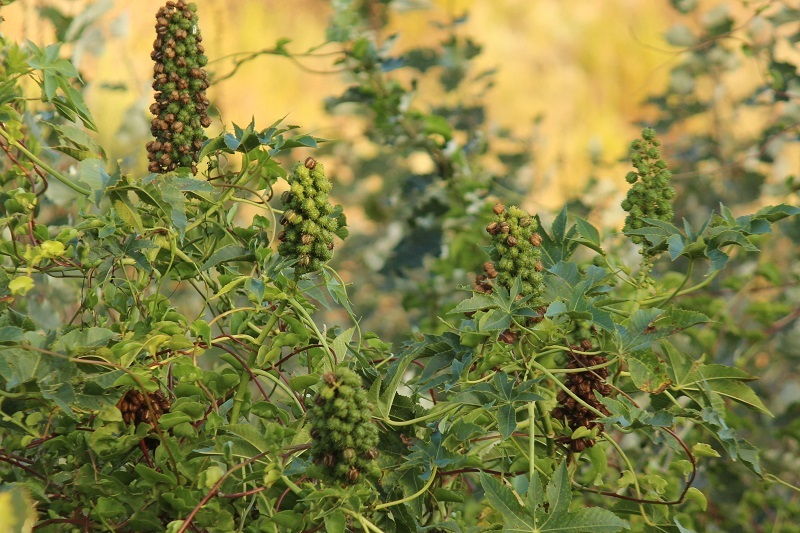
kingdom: Plantae
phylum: Tracheophyta
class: Magnoliopsida
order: Malpighiales
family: Euphorbiaceae
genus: Ricinus
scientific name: Ricinus communis
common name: Castor-oil-plant
